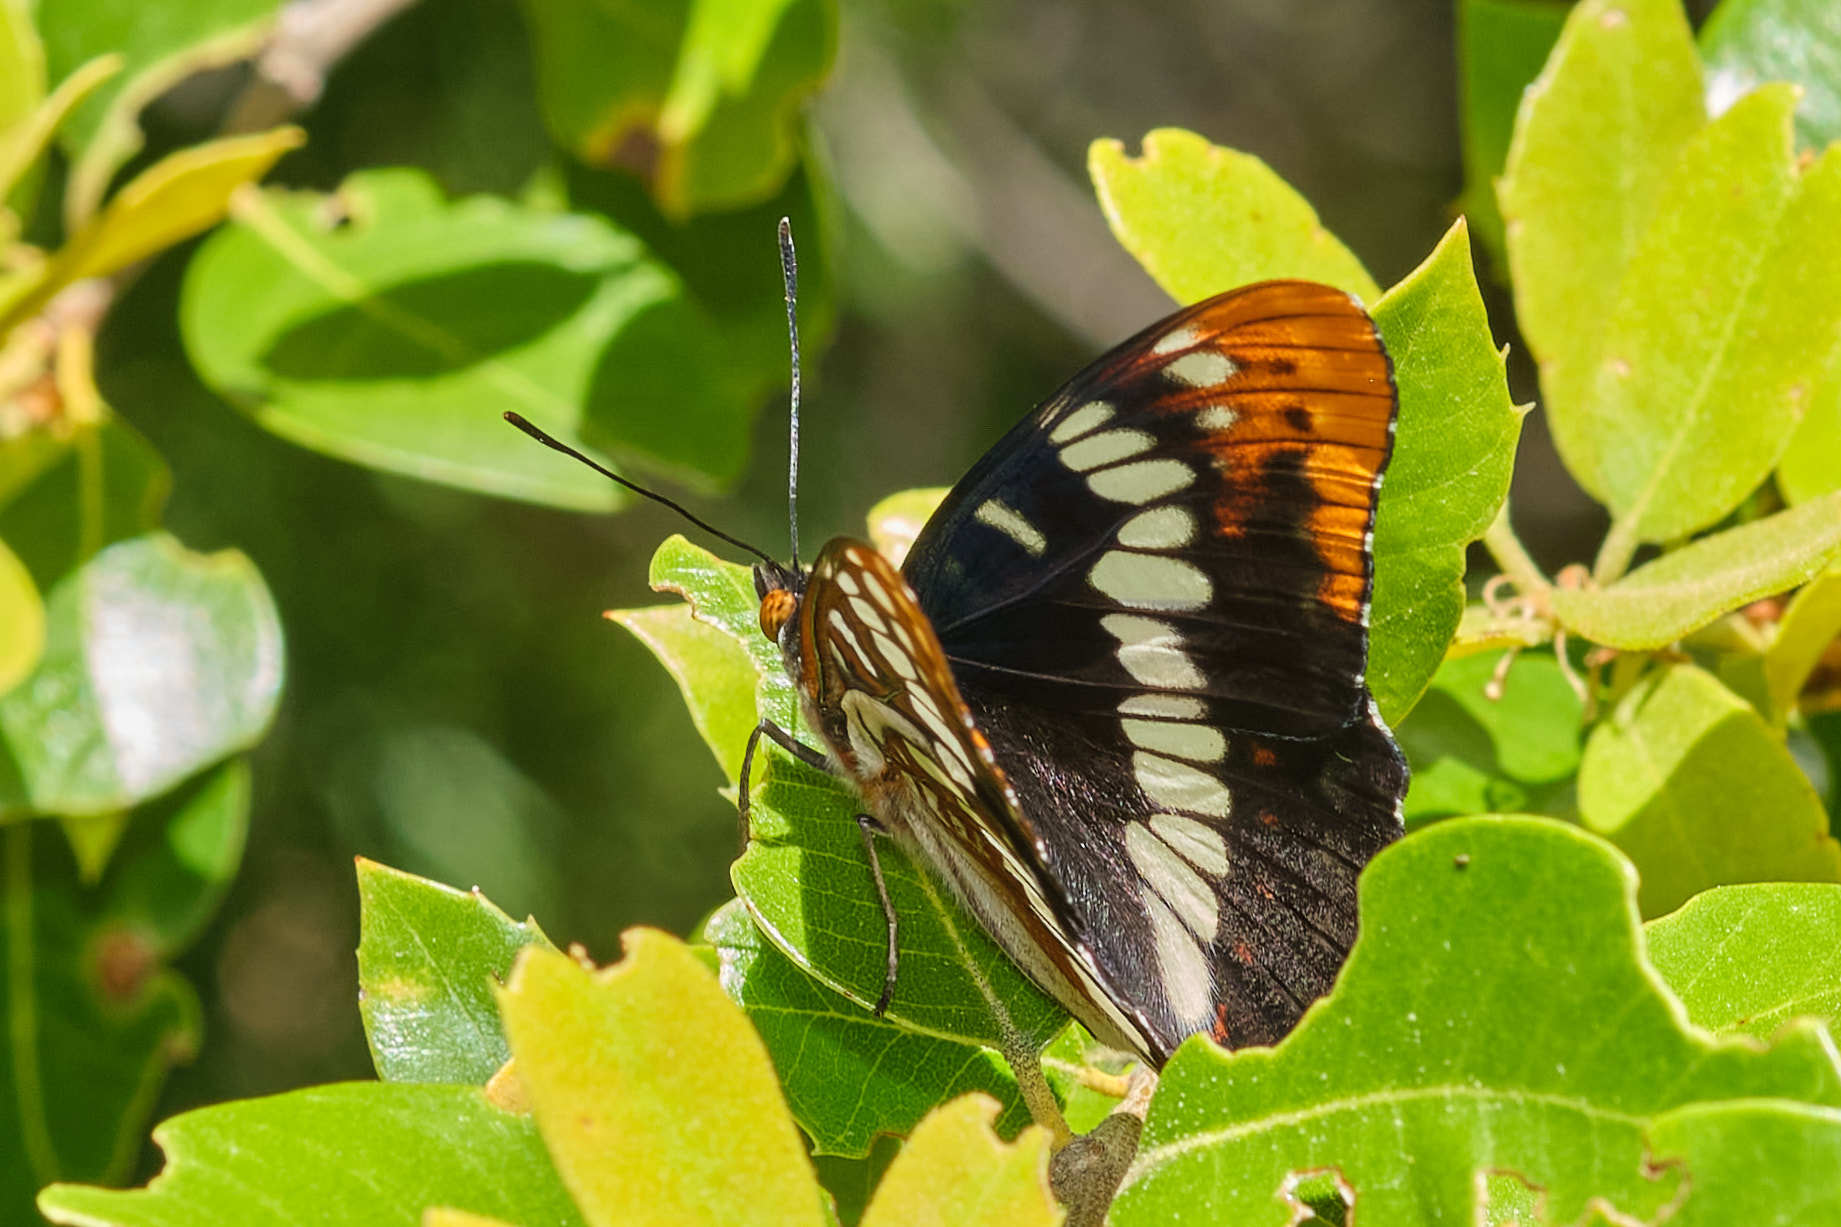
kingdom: Animalia
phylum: Arthropoda
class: Insecta
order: Lepidoptera
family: Nymphalidae
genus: Limenitis
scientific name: Limenitis lorquini
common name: Lorquin's admiral
